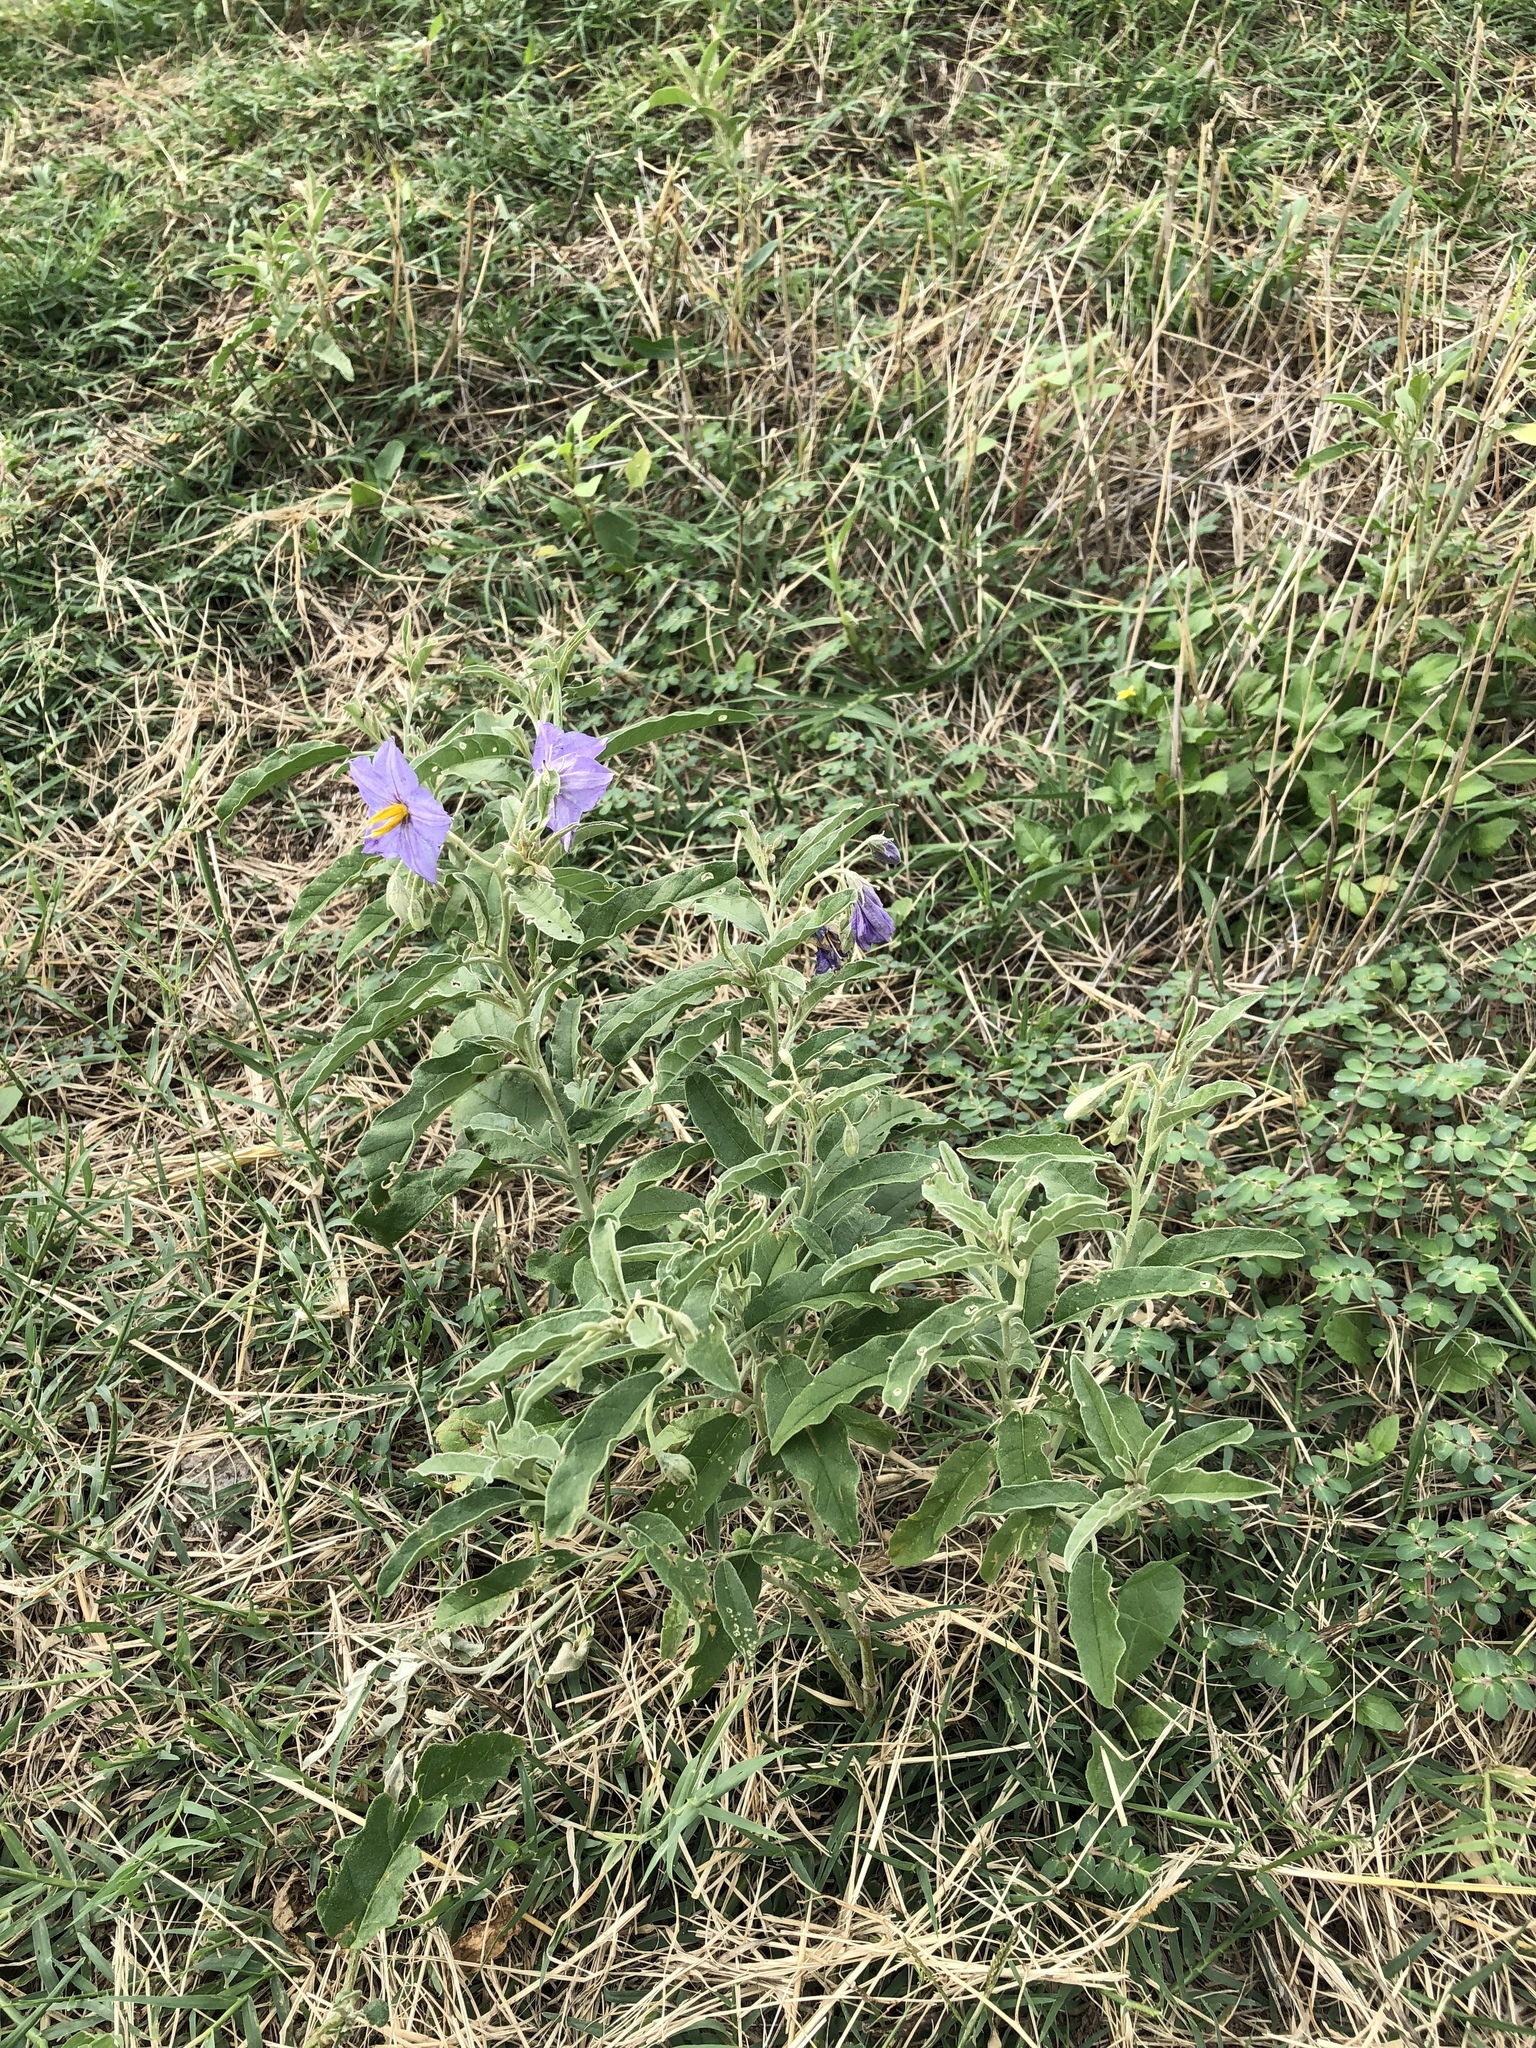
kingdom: Plantae
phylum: Tracheophyta
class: Magnoliopsida
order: Solanales
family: Solanaceae
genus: Solanum
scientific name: Solanum elaeagnifolium
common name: Silverleaf nightshade
